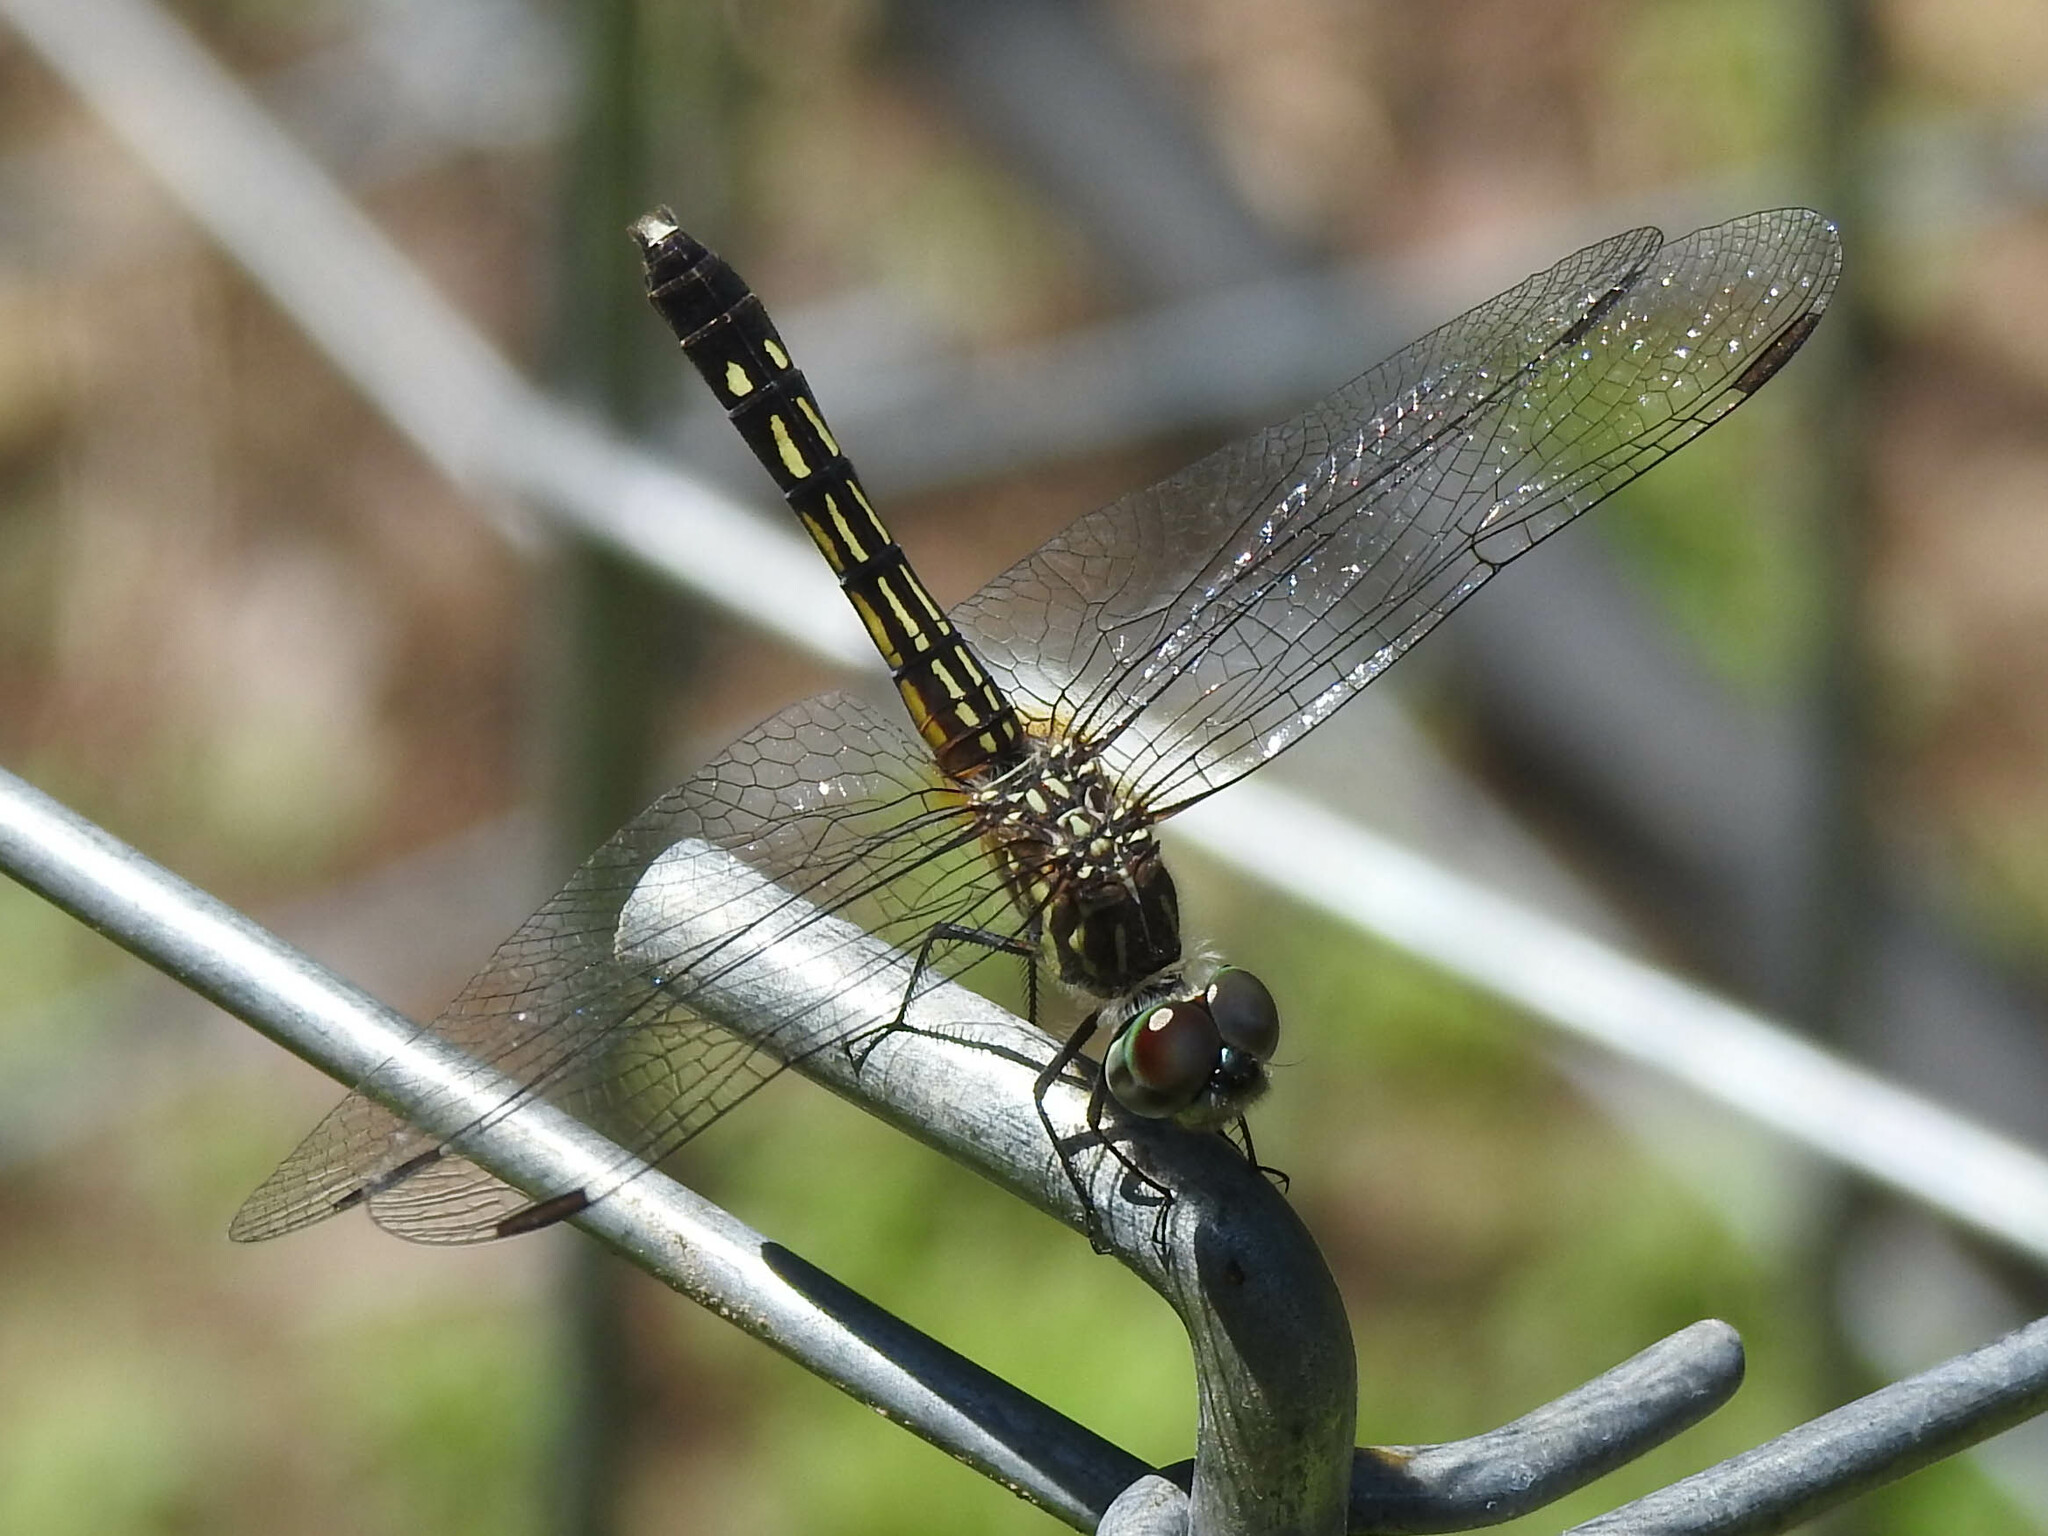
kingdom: Animalia
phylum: Arthropoda
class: Insecta
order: Odonata
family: Libellulidae
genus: Pachydiplax
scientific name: Pachydiplax longipennis
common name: Blue dasher
